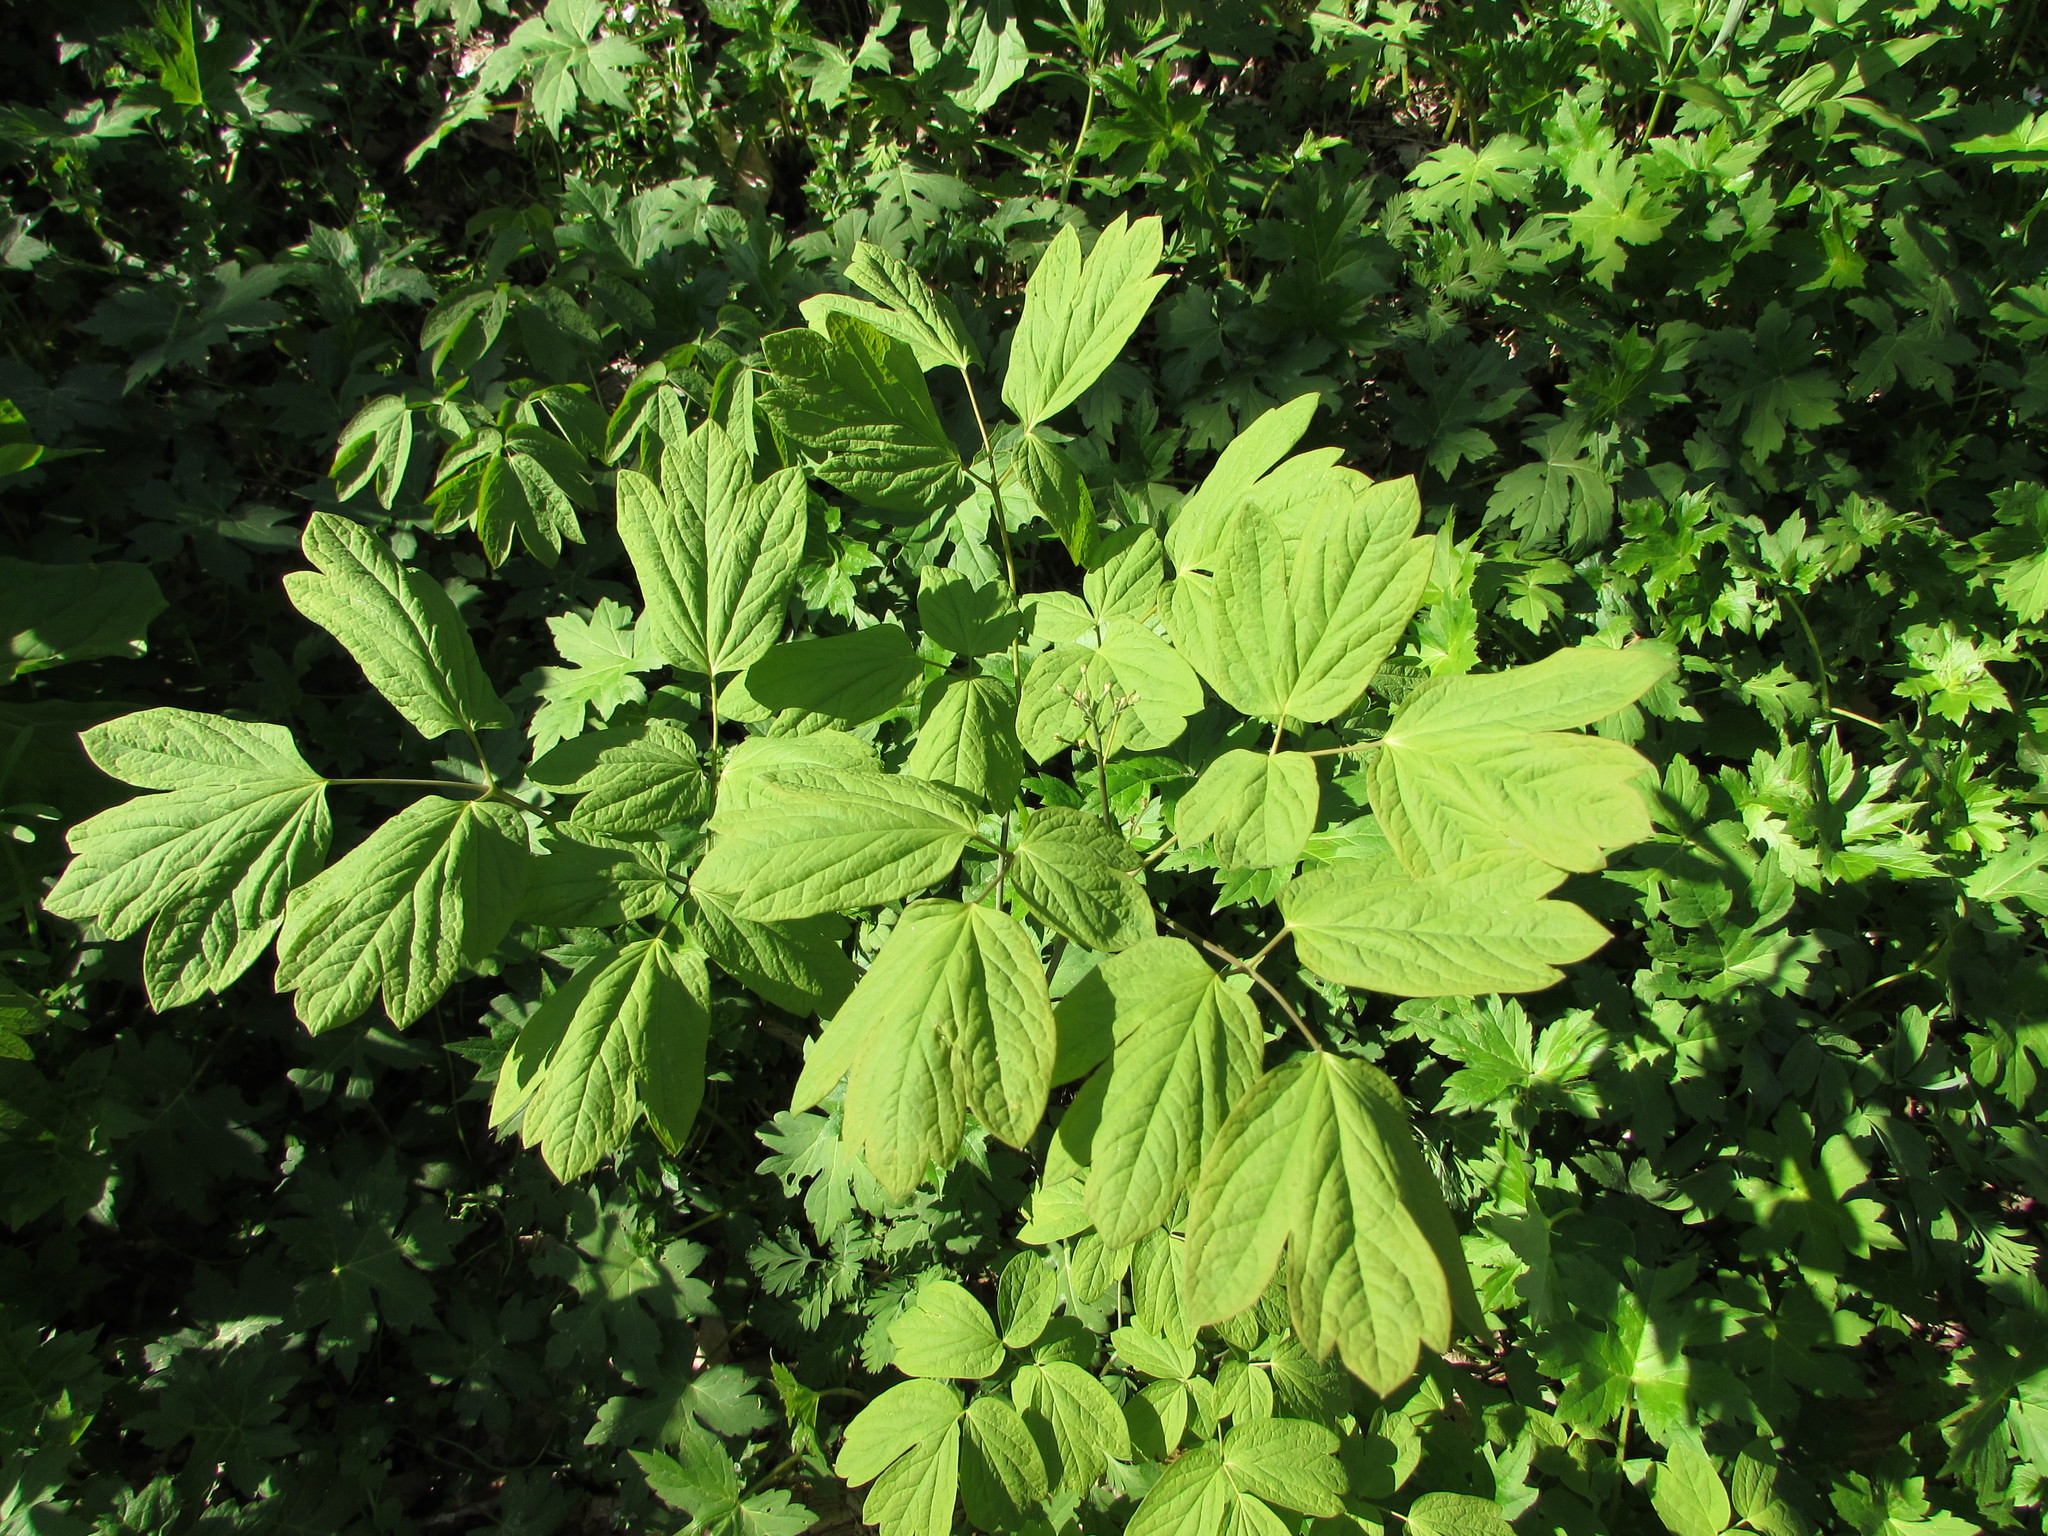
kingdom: Plantae
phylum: Tracheophyta
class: Magnoliopsida
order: Ranunculales
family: Berberidaceae
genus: Caulophyllum
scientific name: Caulophyllum thalictroides
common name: Blue cohosh
